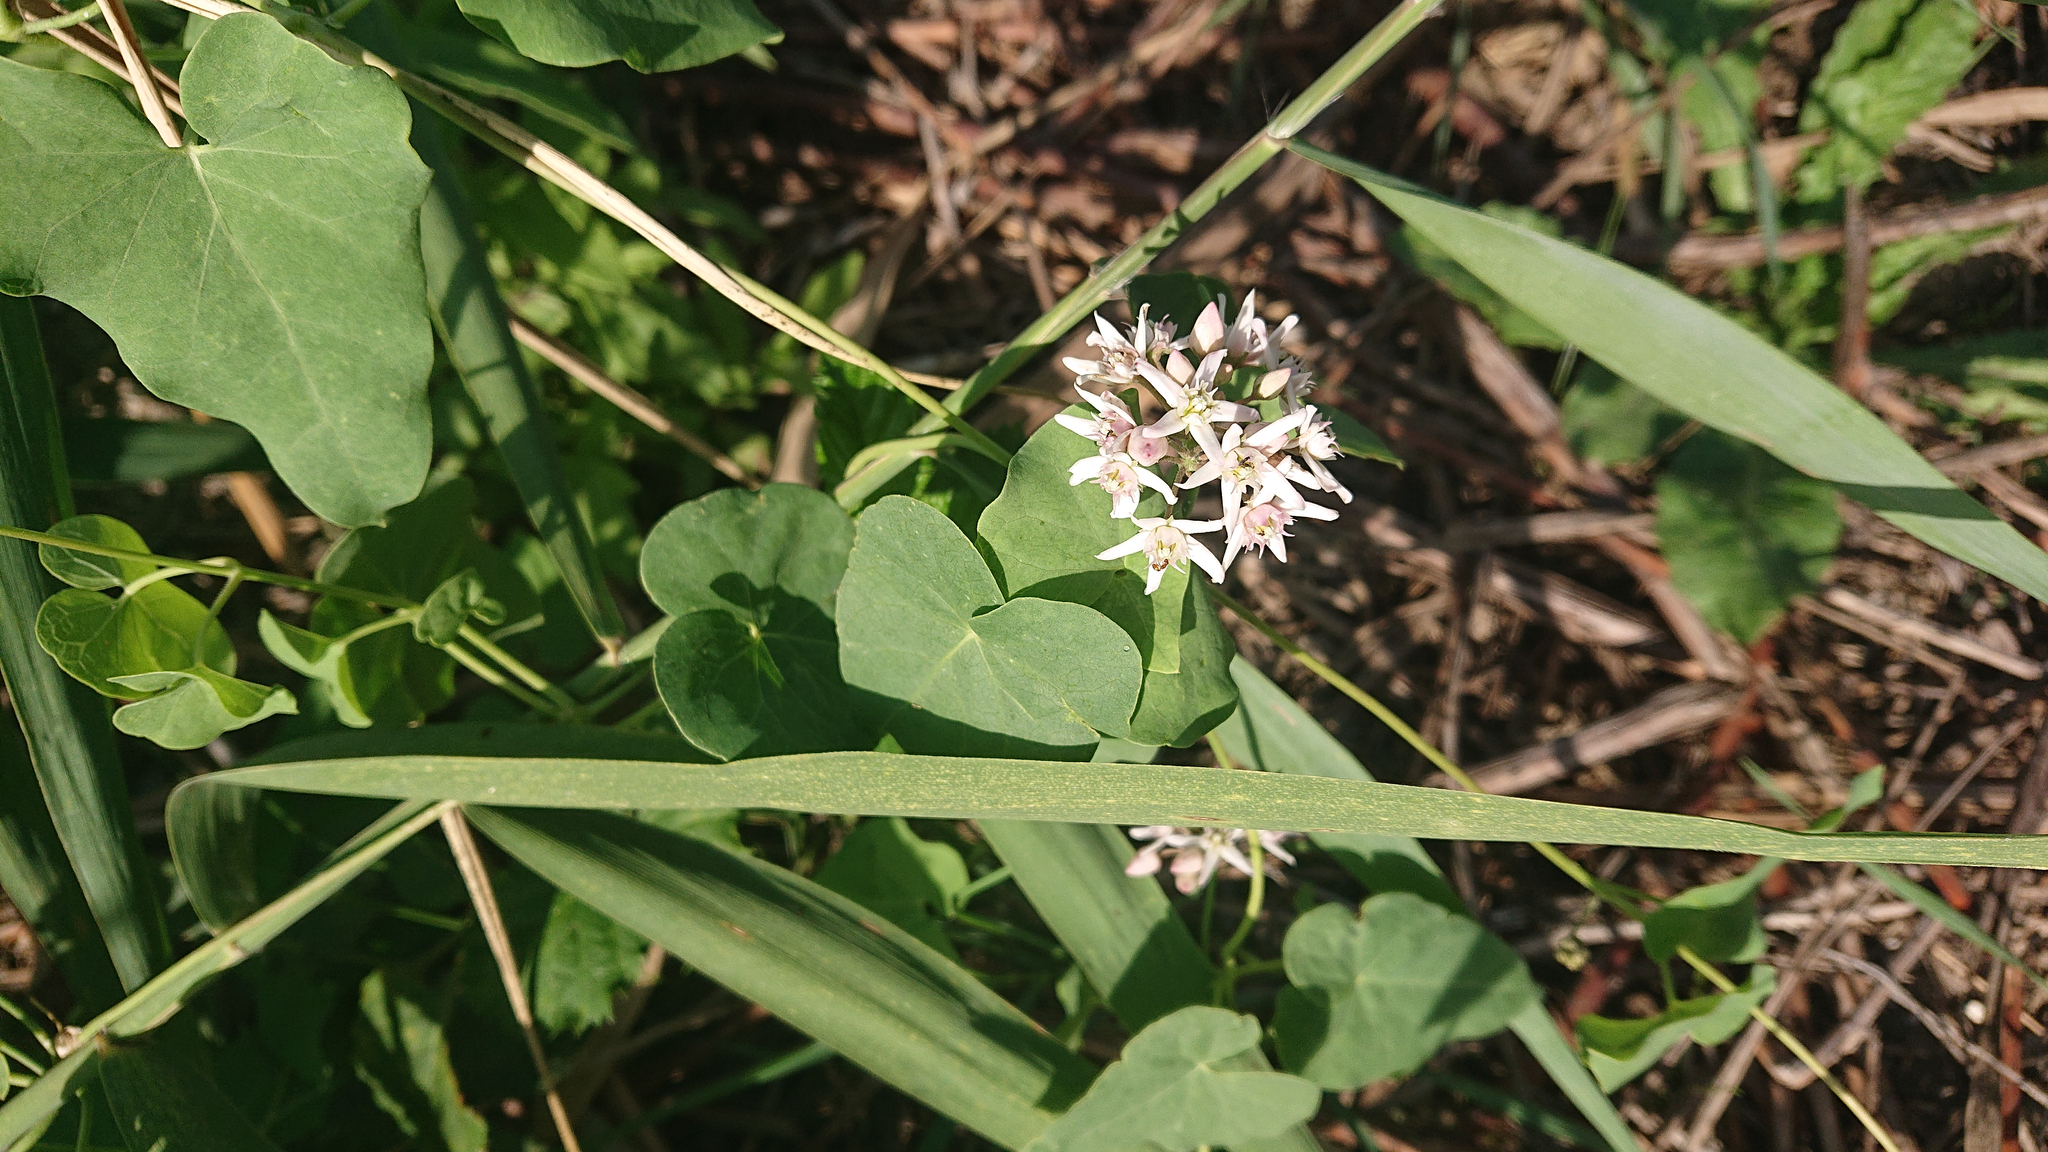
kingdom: Plantae
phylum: Tracheophyta
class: Magnoliopsida
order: Gentianales
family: Apocynaceae
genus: Cynanchum
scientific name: Cynanchum acutum
